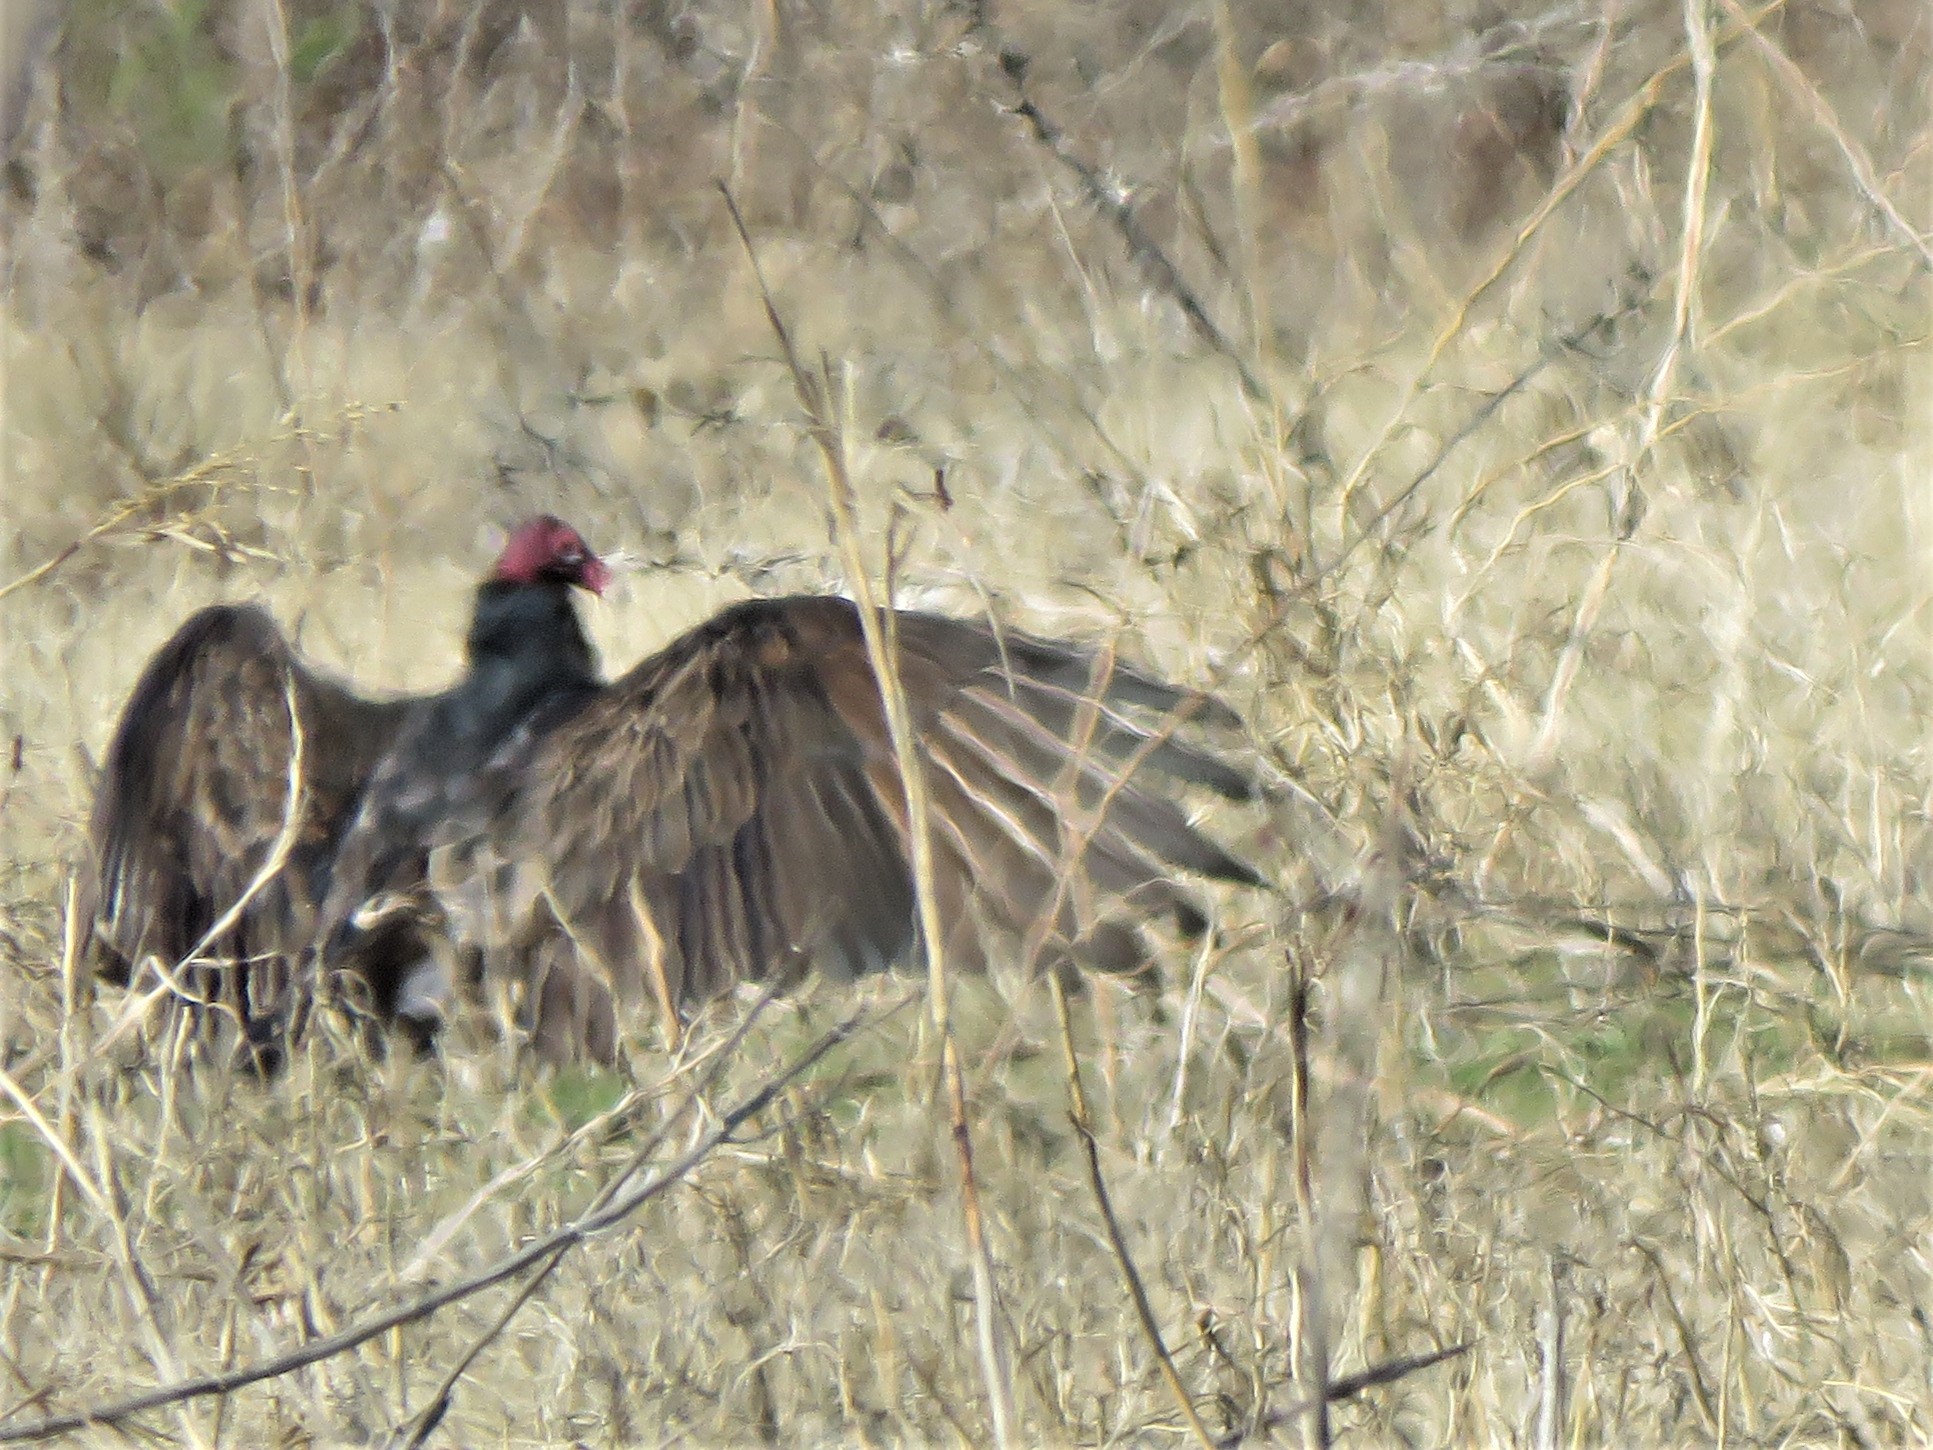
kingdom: Animalia
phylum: Chordata
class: Aves
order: Accipitriformes
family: Cathartidae
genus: Cathartes
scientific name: Cathartes aura
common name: Turkey vulture
